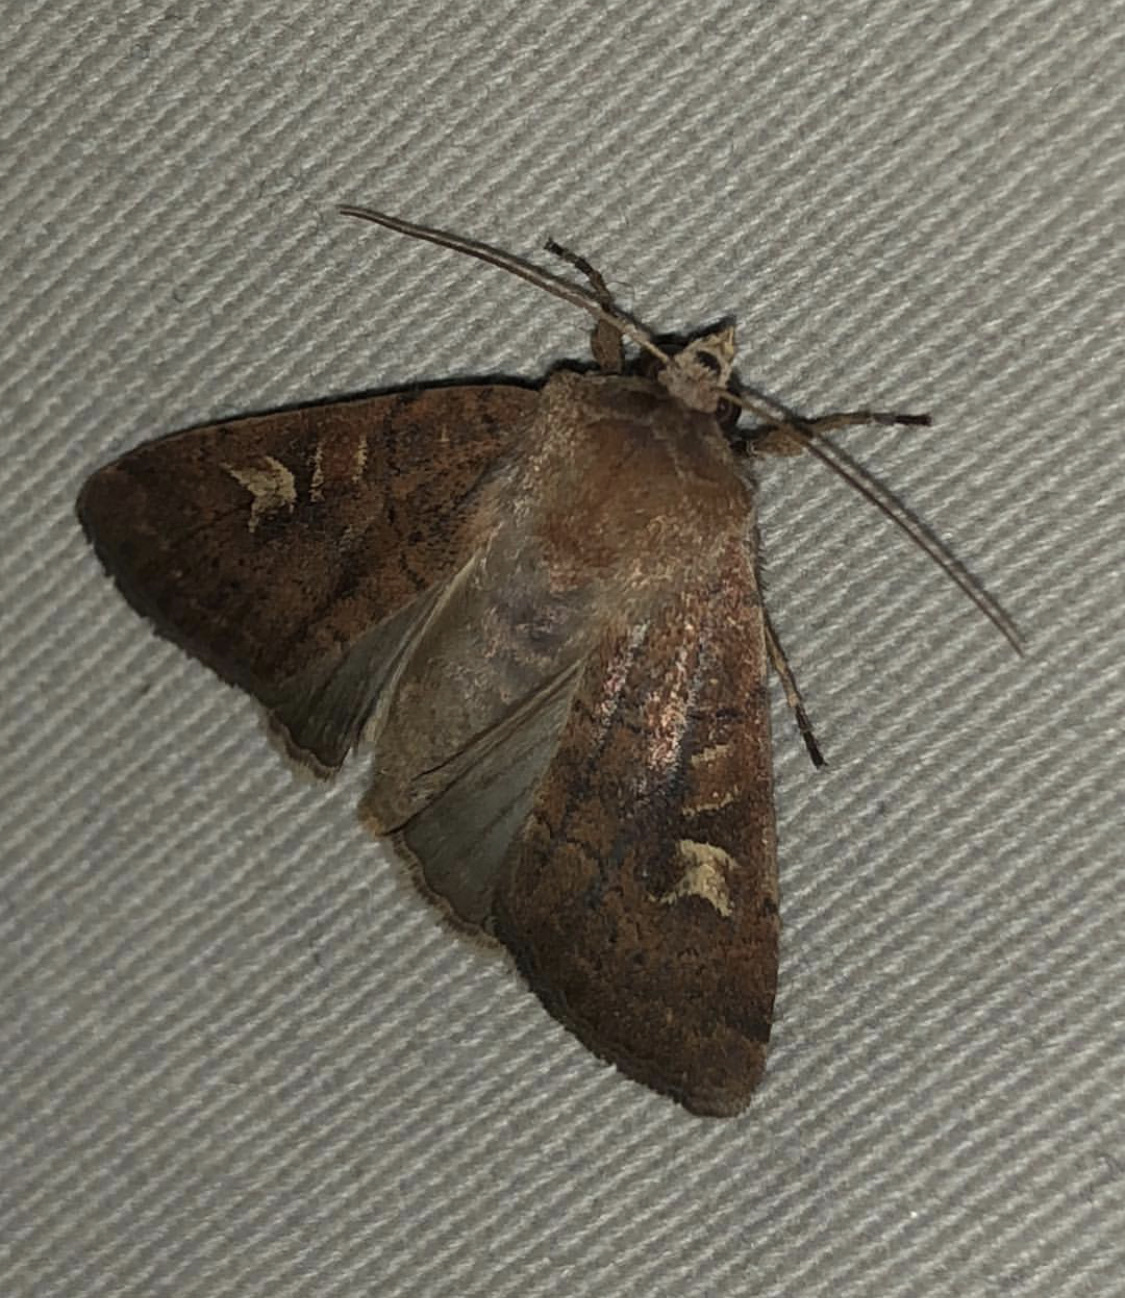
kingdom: Animalia
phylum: Arthropoda
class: Insecta
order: Lepidoptera
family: Noctuidae
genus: Xestia
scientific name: Xestia xanthographa
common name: Square-spot rustic
